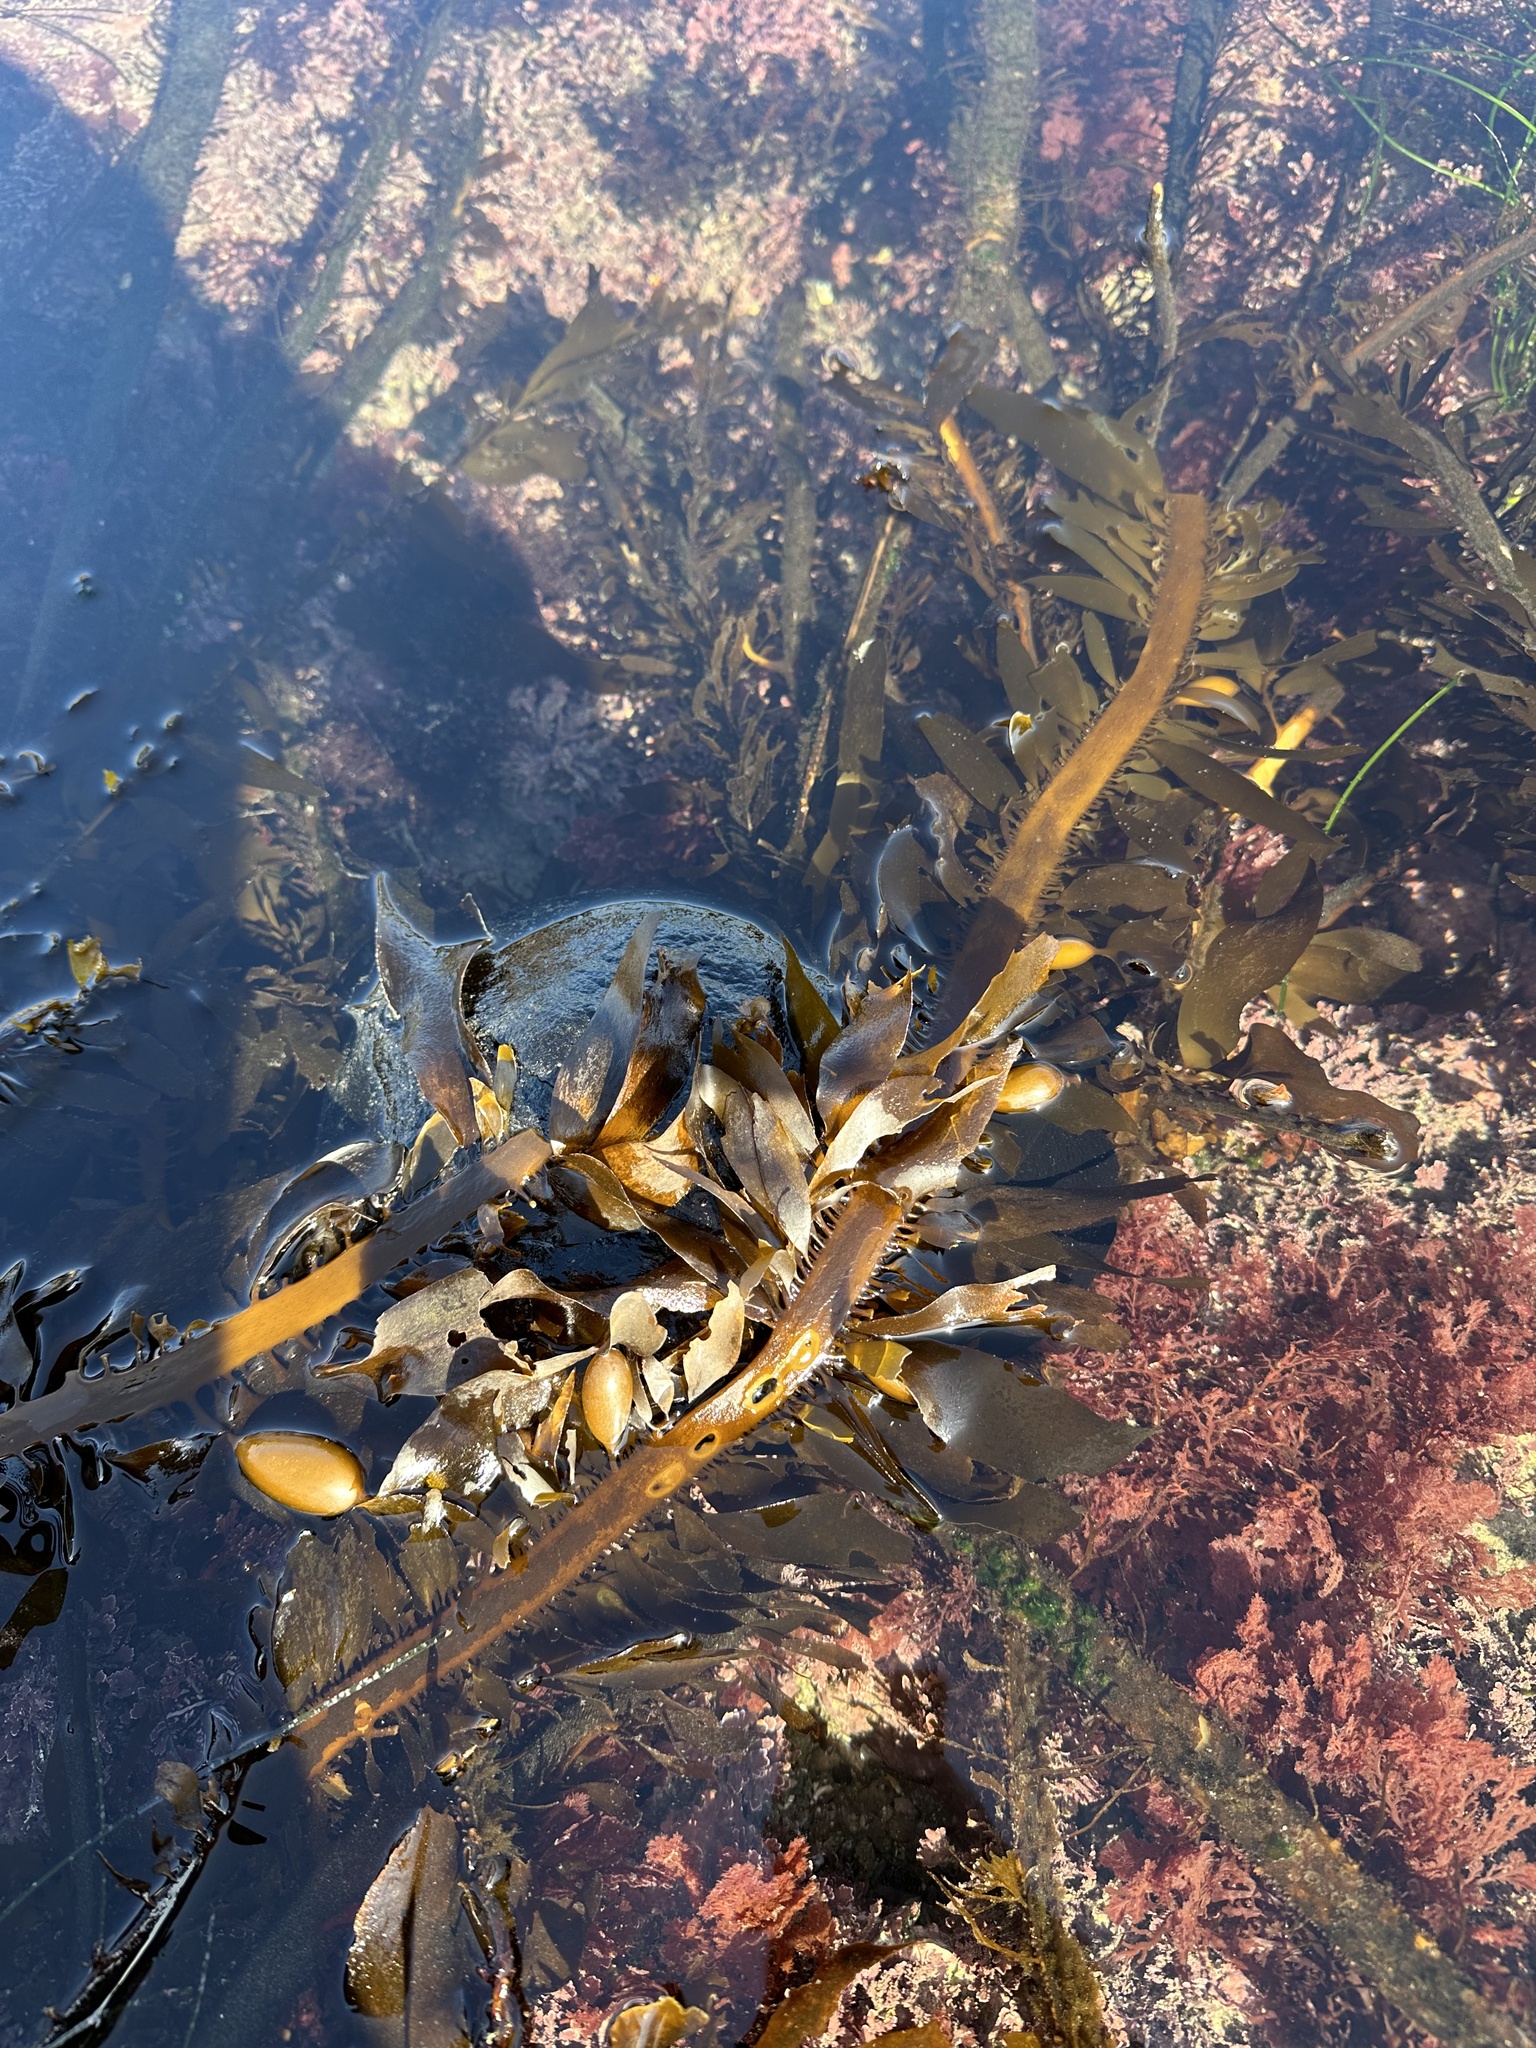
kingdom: Animalia
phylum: Mollusca
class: Gastropoda
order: Aplysiida
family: Aplysiidae
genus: Aplysia
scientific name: Aplysia vaccaria
